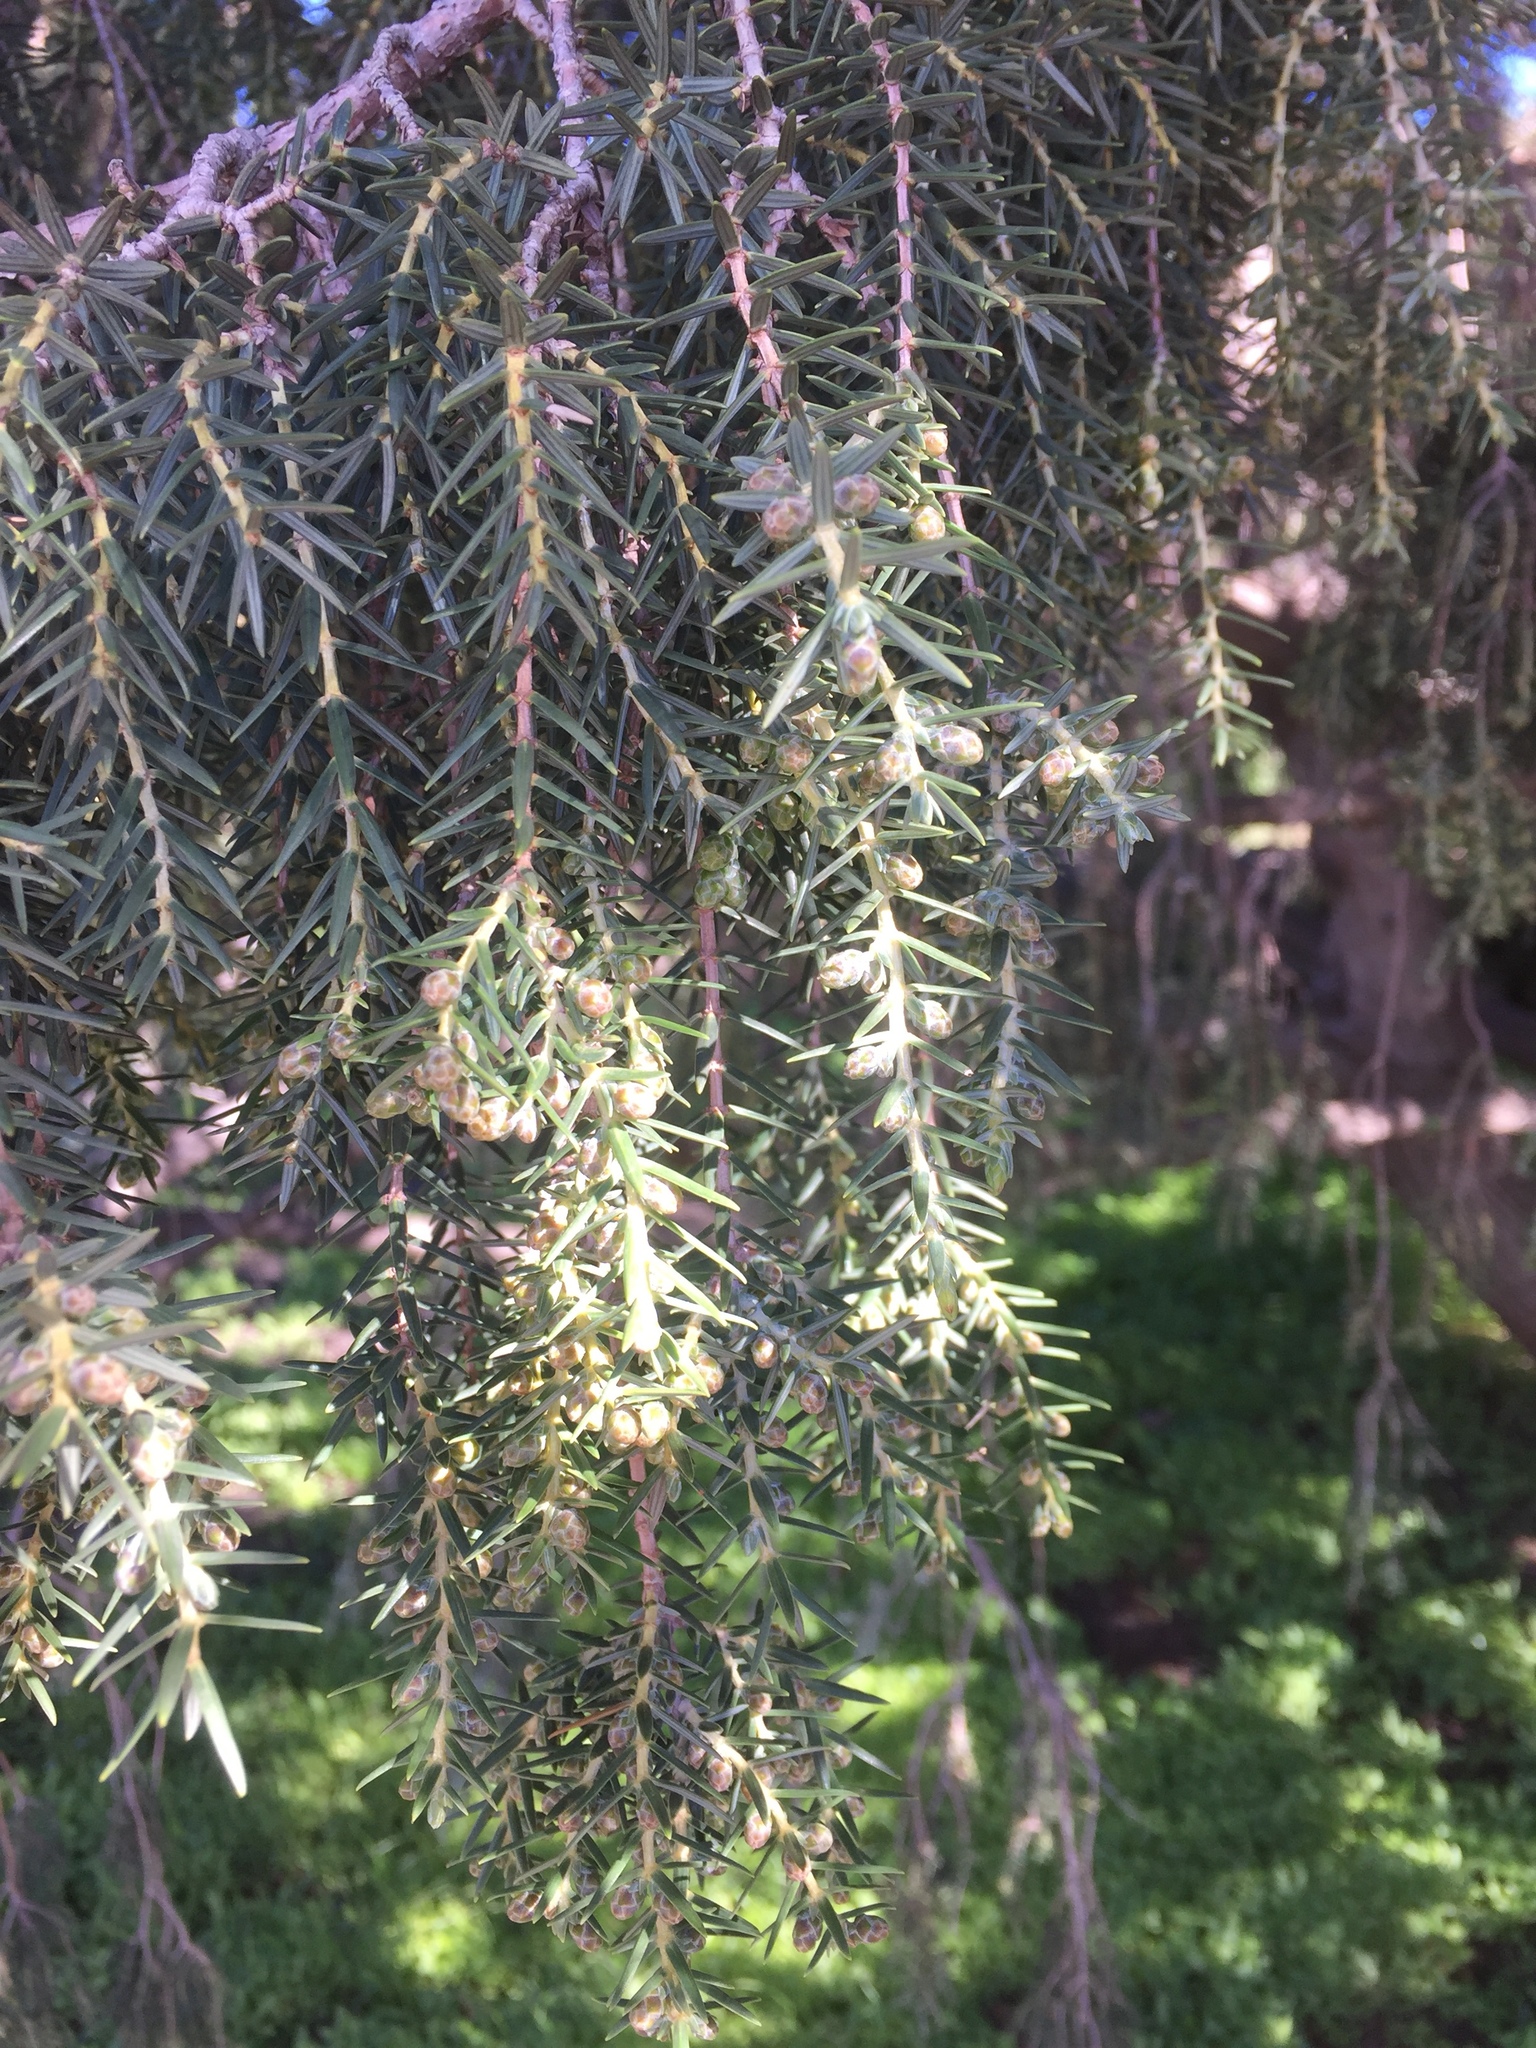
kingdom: Plantae
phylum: Tracheophyta
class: Pinopsida
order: Pinales
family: Cupressaceae
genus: Juniperus
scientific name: Juniperus cedrus
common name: Canary islands juniper
